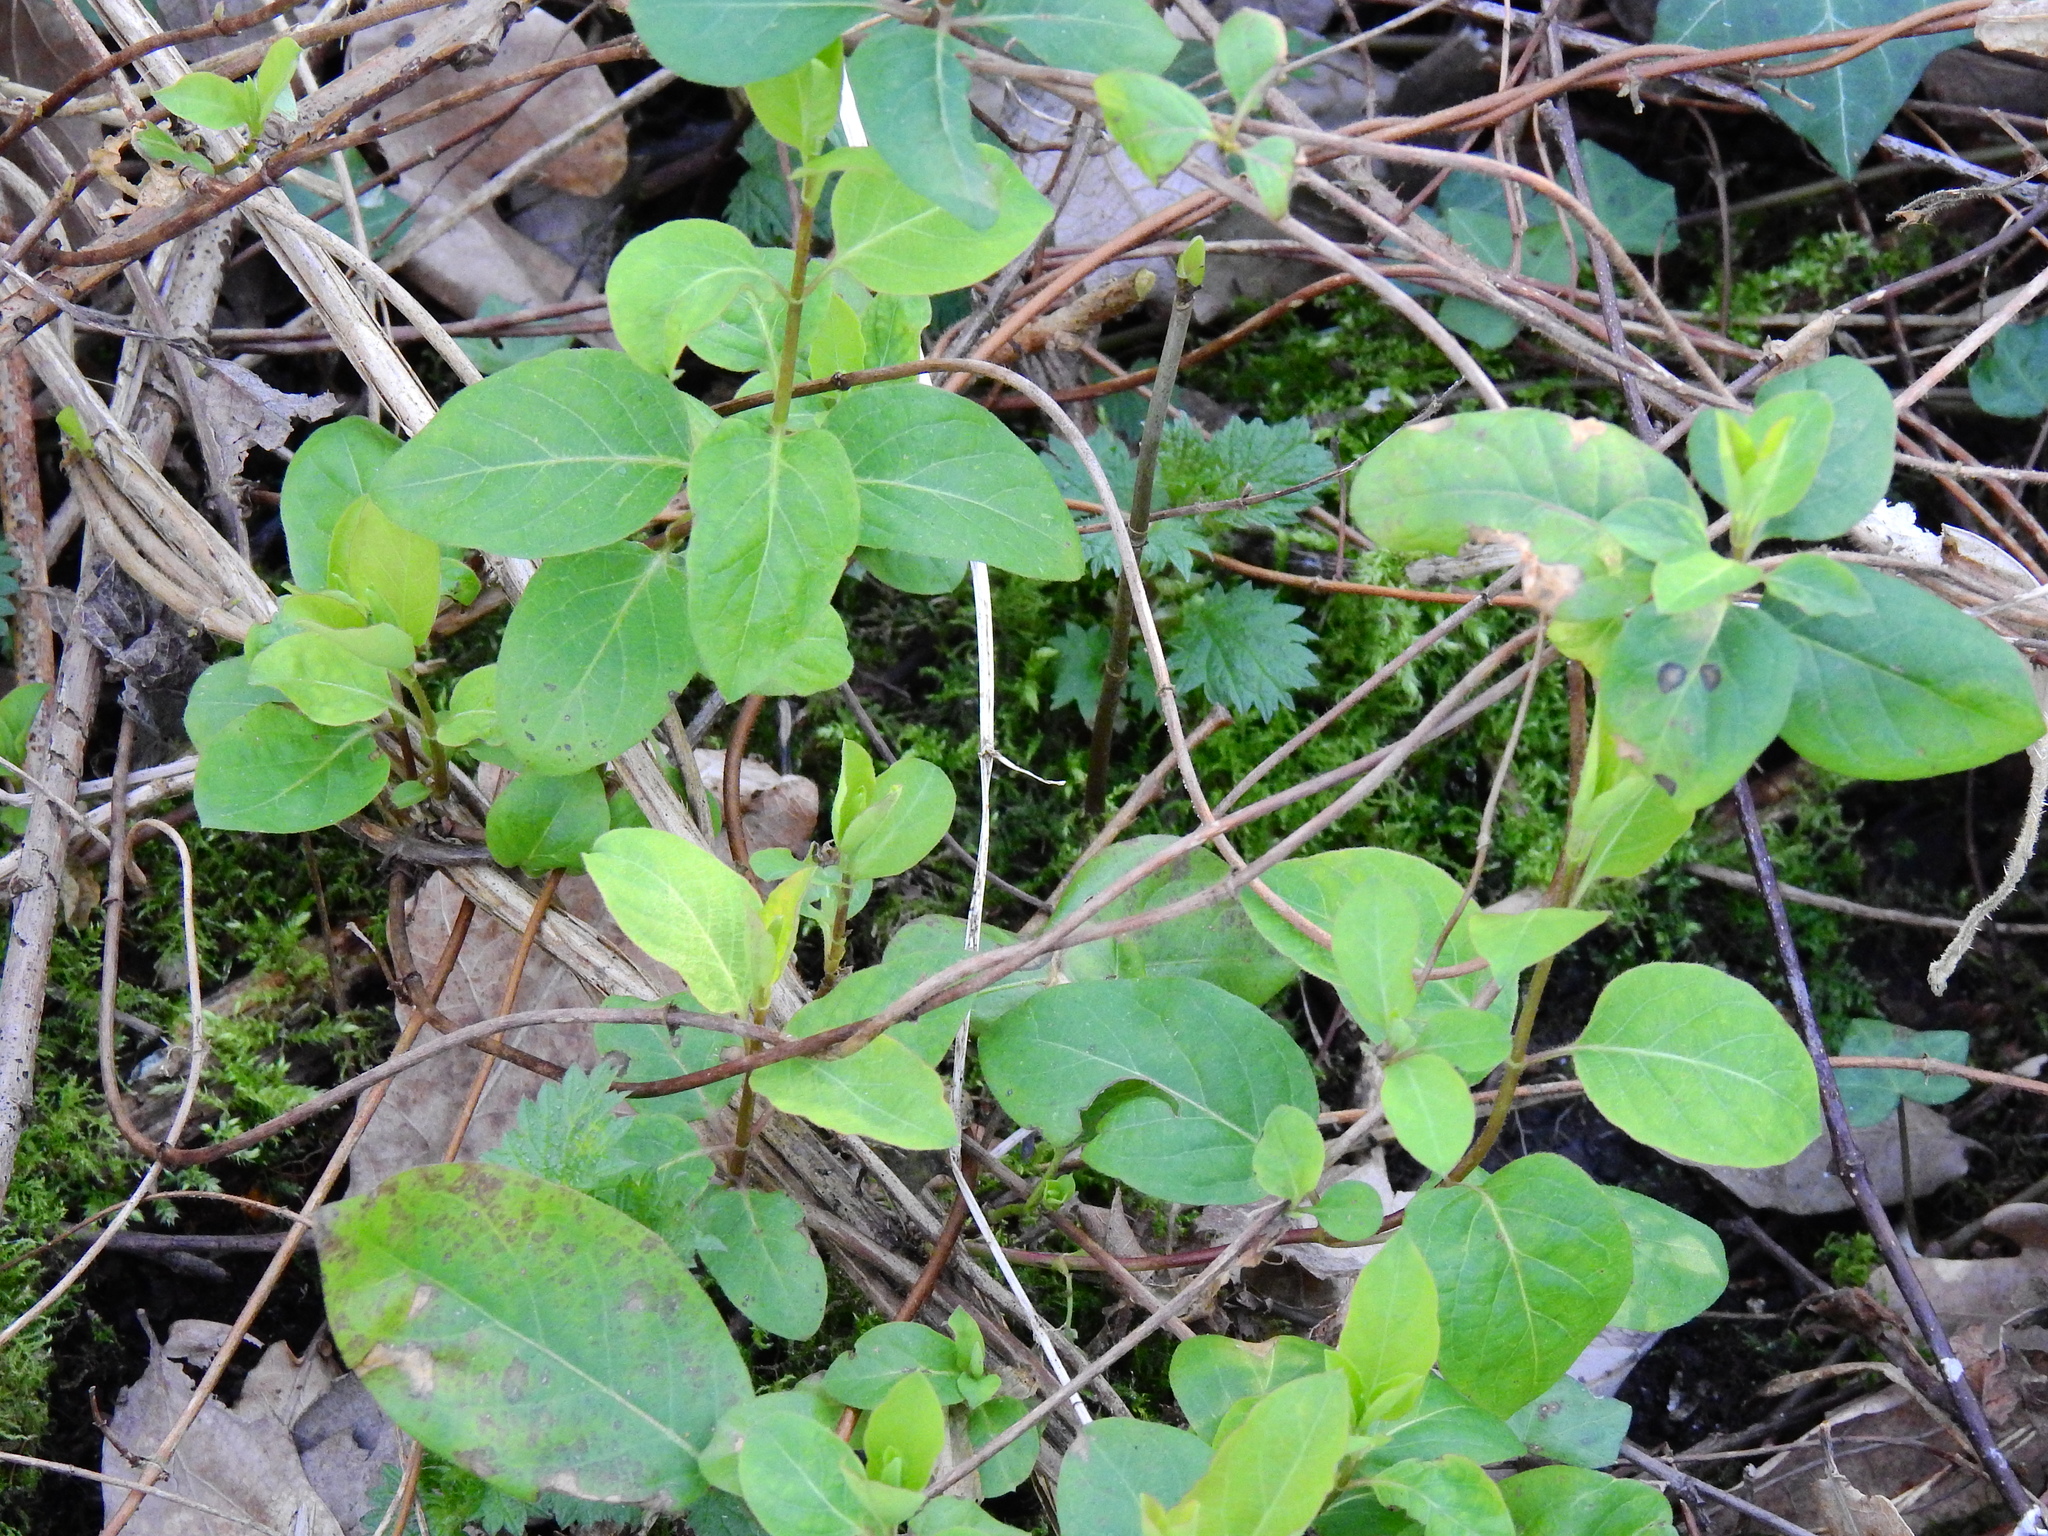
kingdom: Plantae
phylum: Tracheophyta
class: Magnoliopsida
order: Dipsacales
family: Caprifoliaceae
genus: Lonicera
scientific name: Lonicera japonica
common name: Japanese honeysuckle
